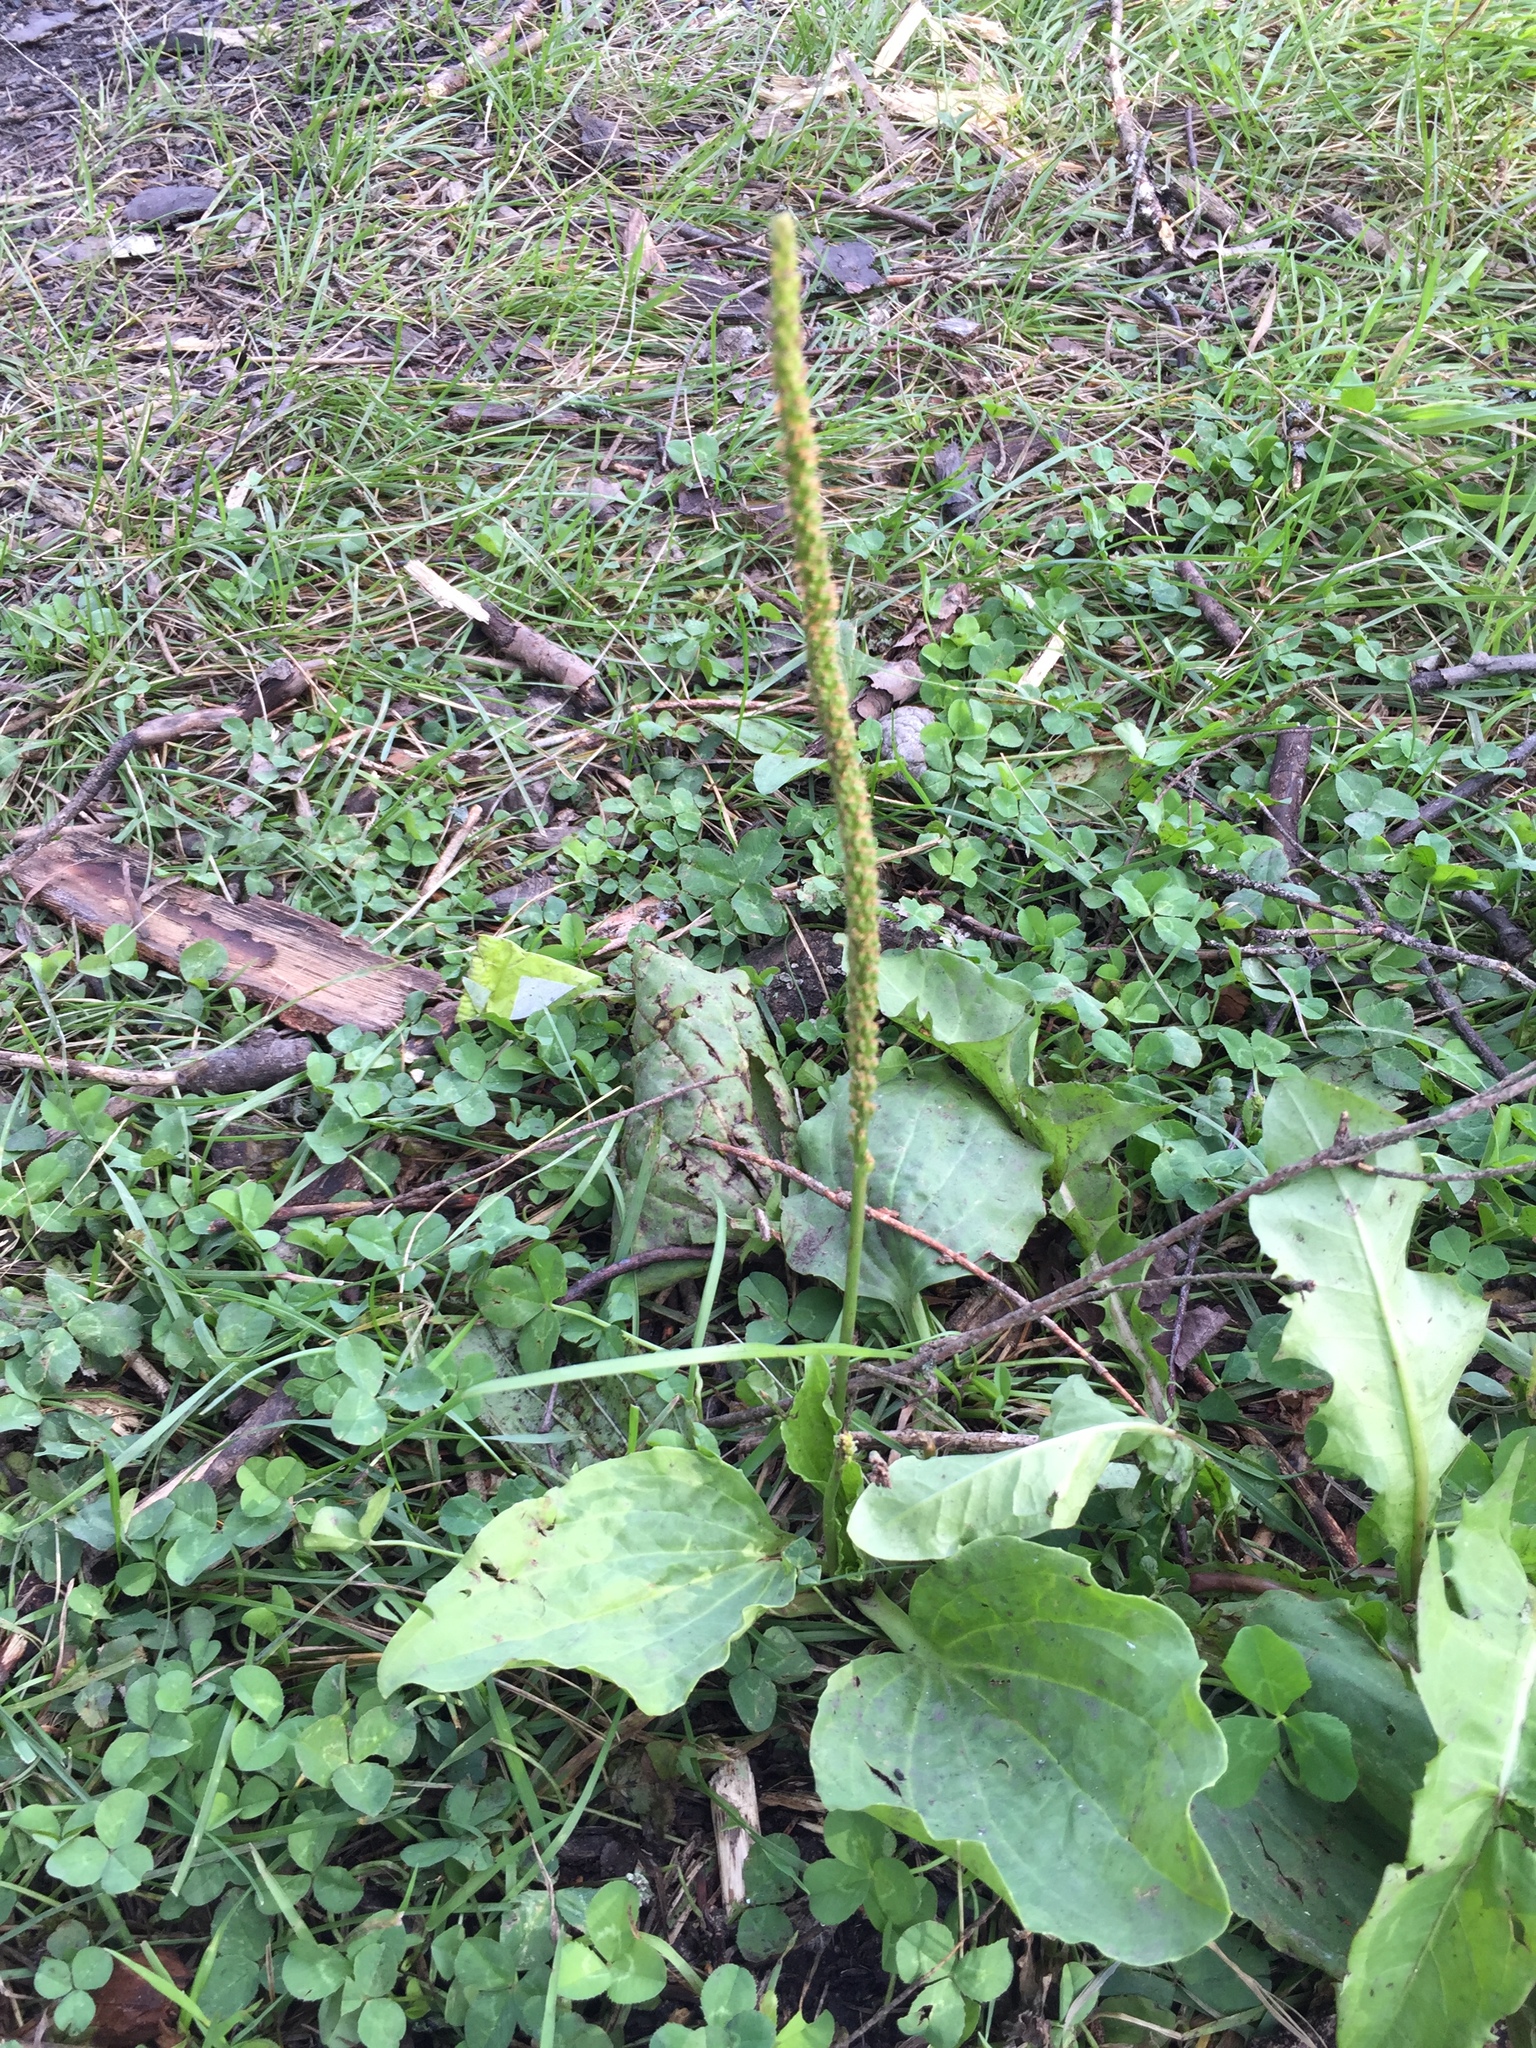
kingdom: Plantae
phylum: Tracheophyta
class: Magnoliopsida
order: Lamiales
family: Plantaginaceae
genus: Plantago
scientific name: Plantago major
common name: Common plantain
